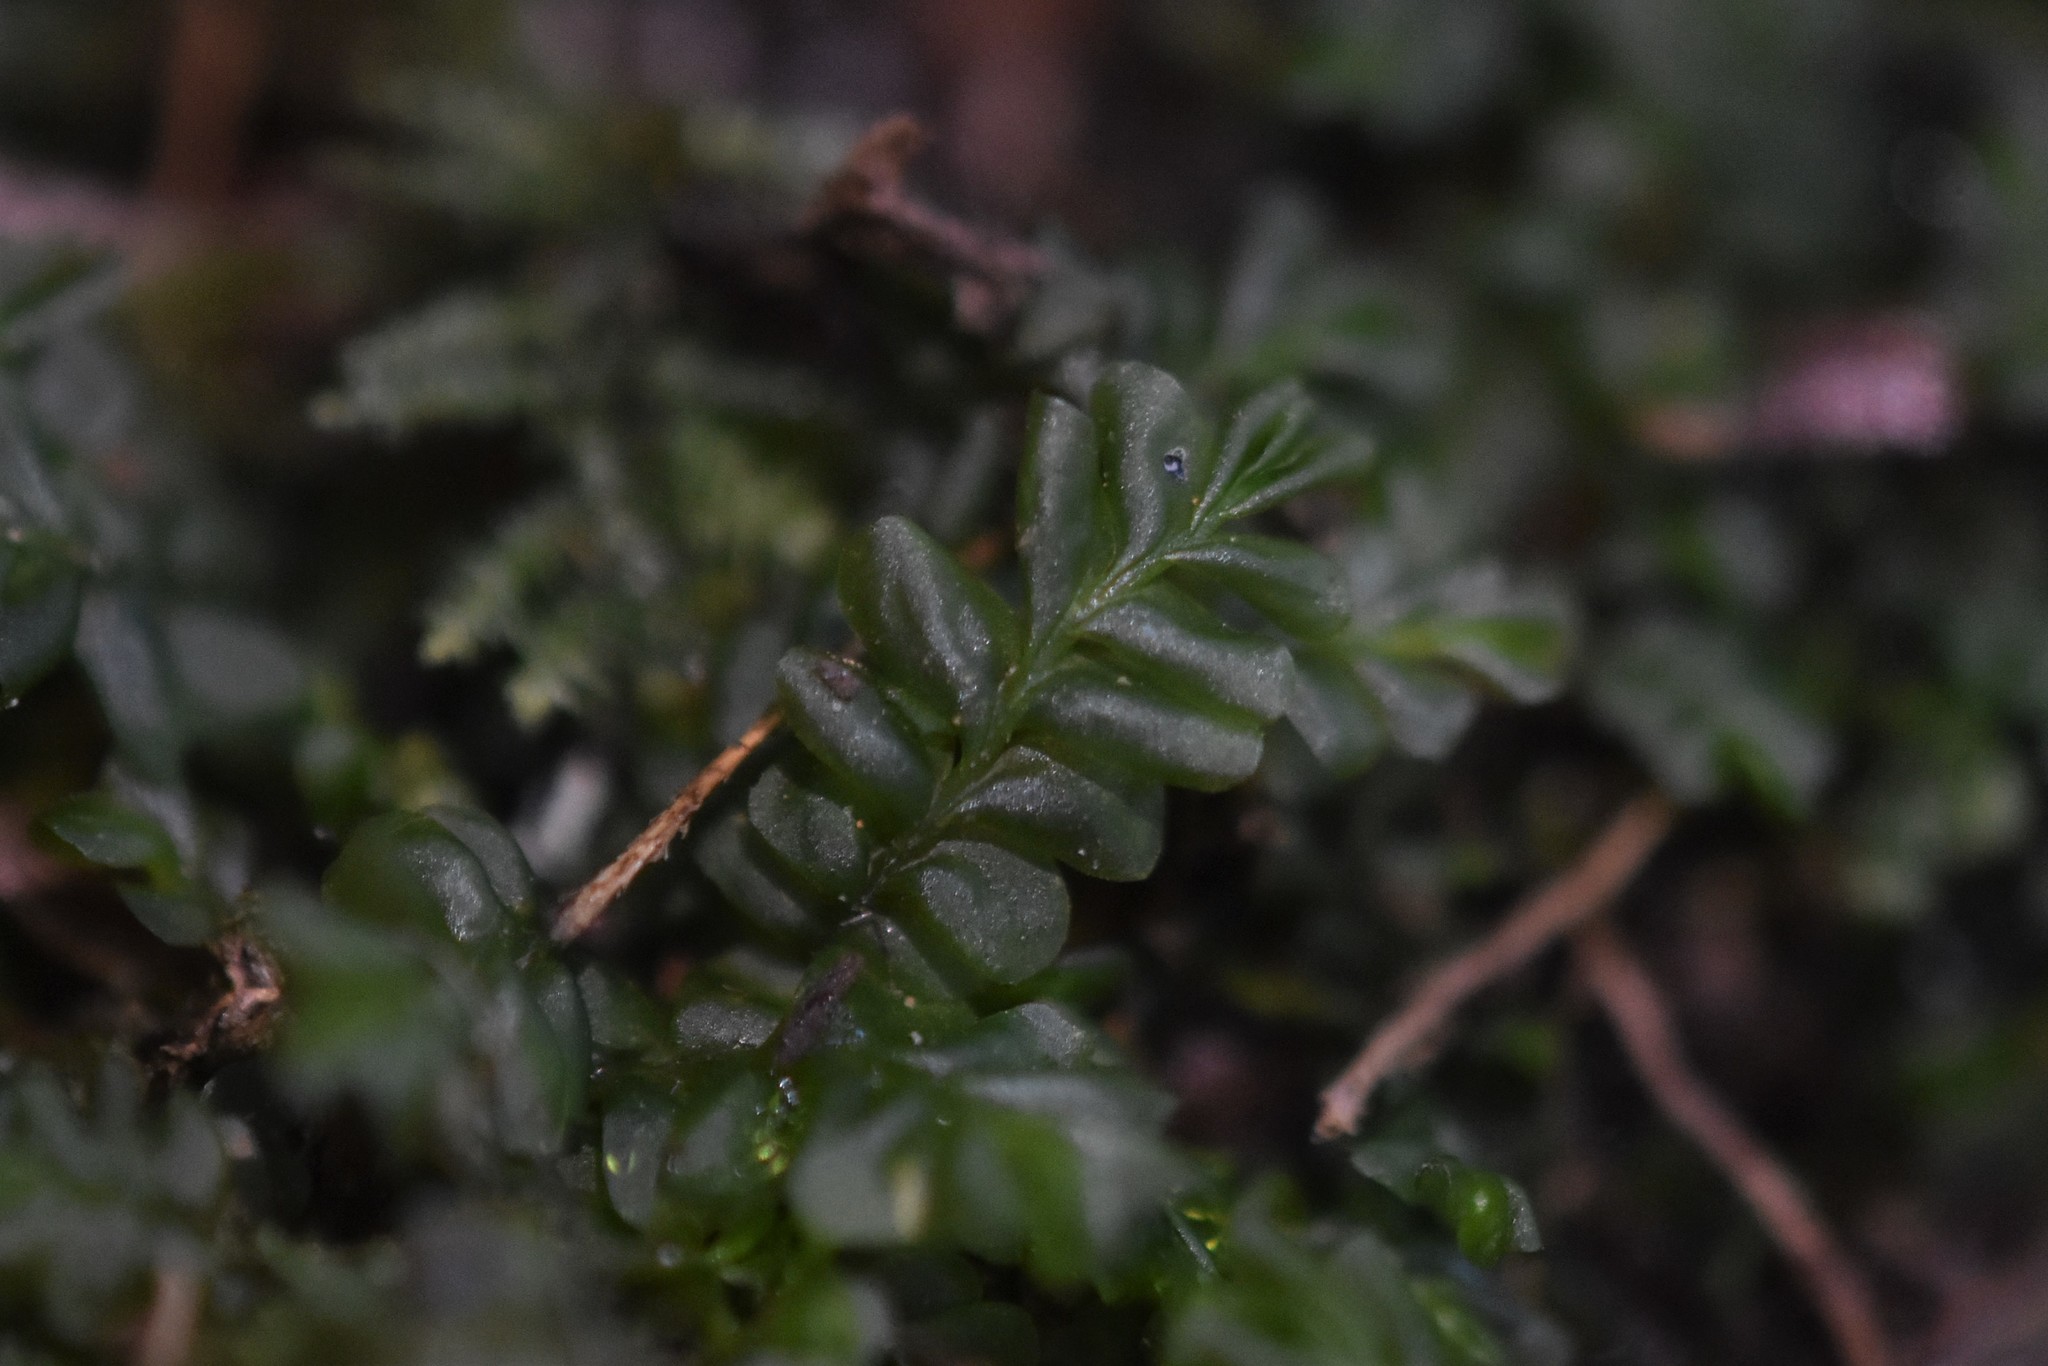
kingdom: Plantae
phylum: Marchantiophyta
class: Jungermanniopsida
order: Jungermanniales
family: Plagiochilaceae
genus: Plagiochila
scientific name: Plagiochila porelloides
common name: Lesser featherwort
